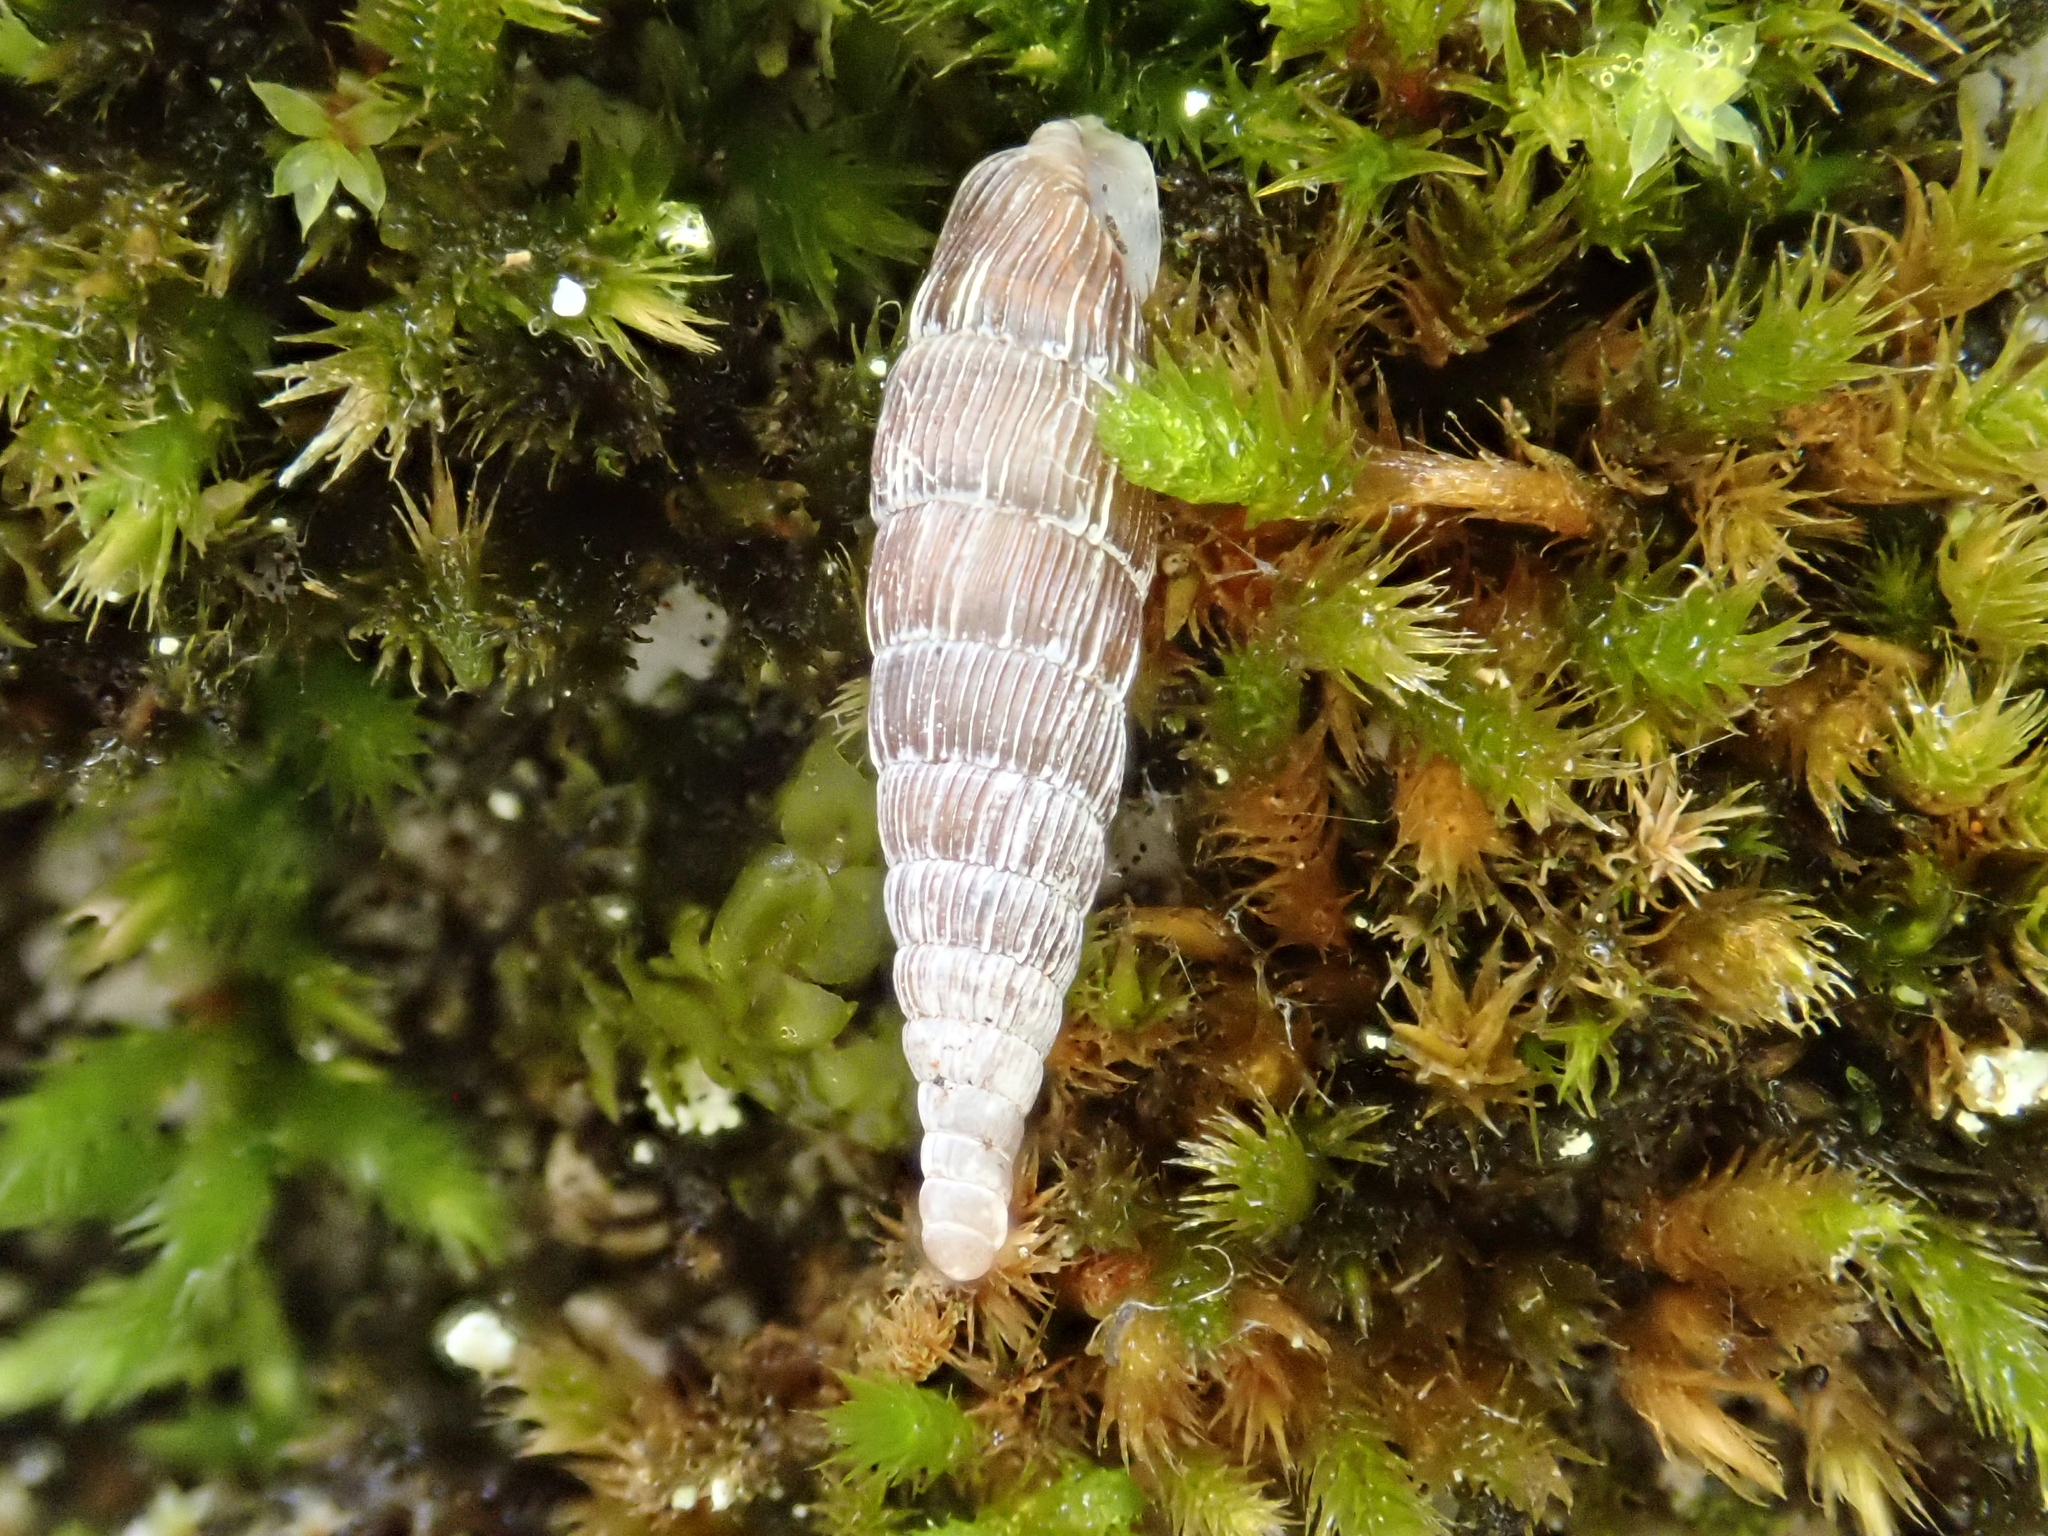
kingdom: Animalia
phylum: Mollusca
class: Gastropoda
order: Stylommatophora
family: Clausiliidae
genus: Alinda
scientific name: Alinda biplicata
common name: Thames door snail
